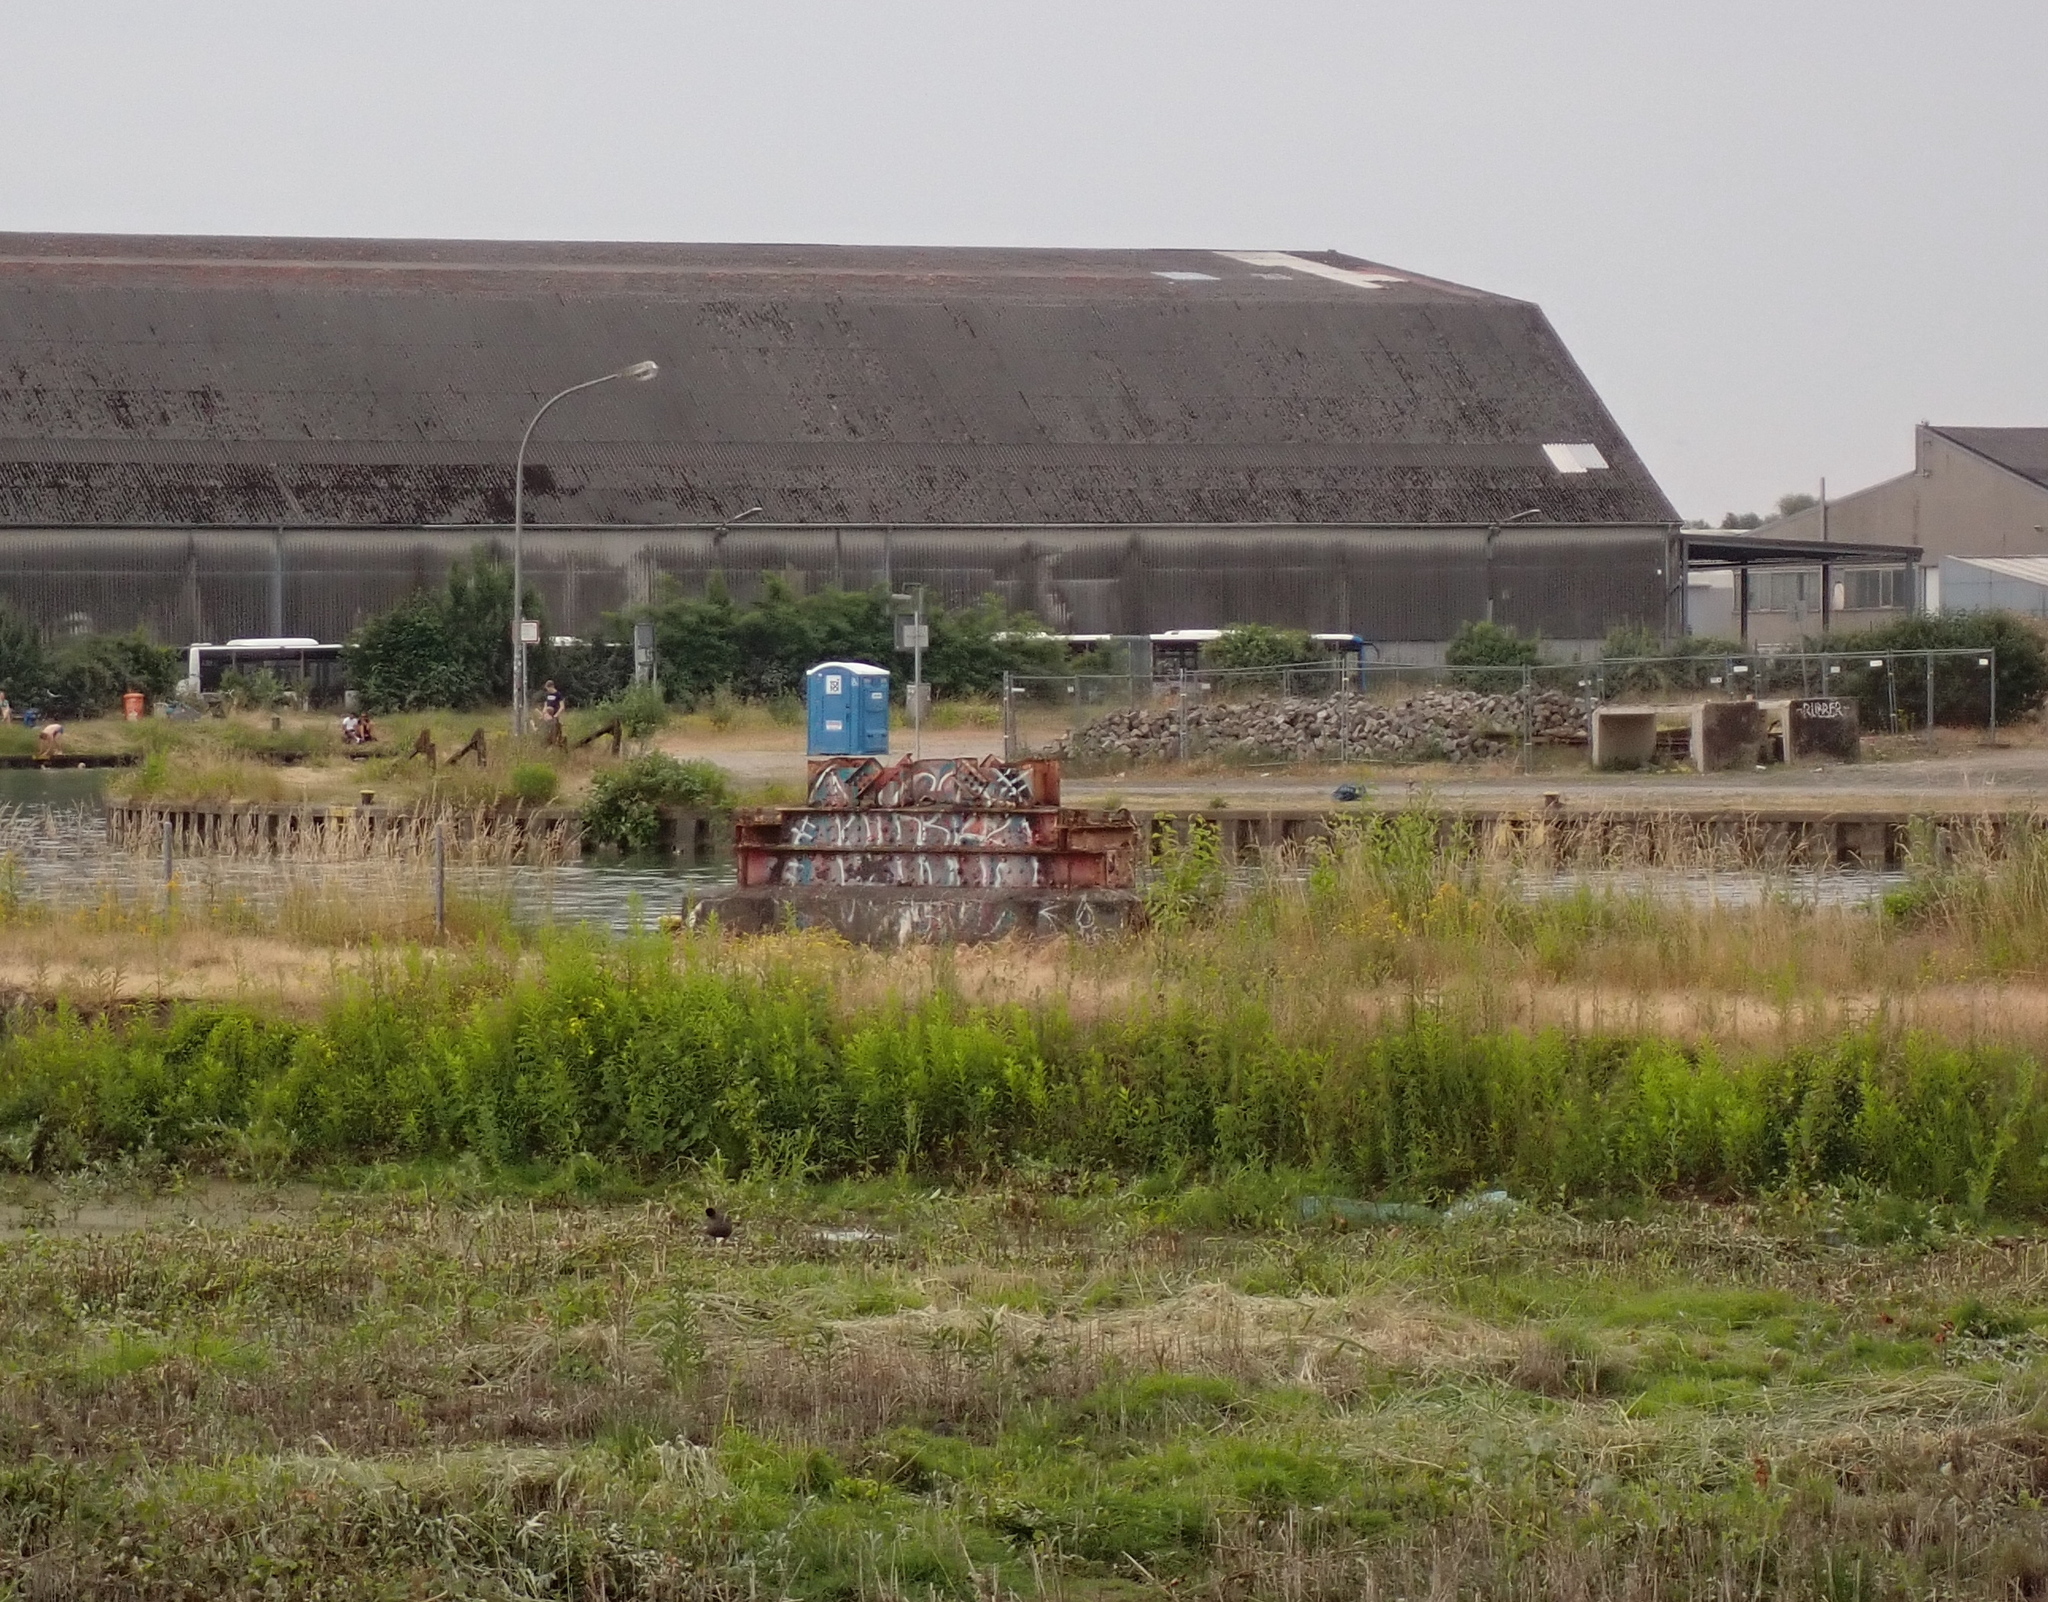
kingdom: Animalia
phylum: Chordata
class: Aves
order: Gruiformes
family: Rallidae
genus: Fulica
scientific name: Fulica atra
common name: Eurasian coot
